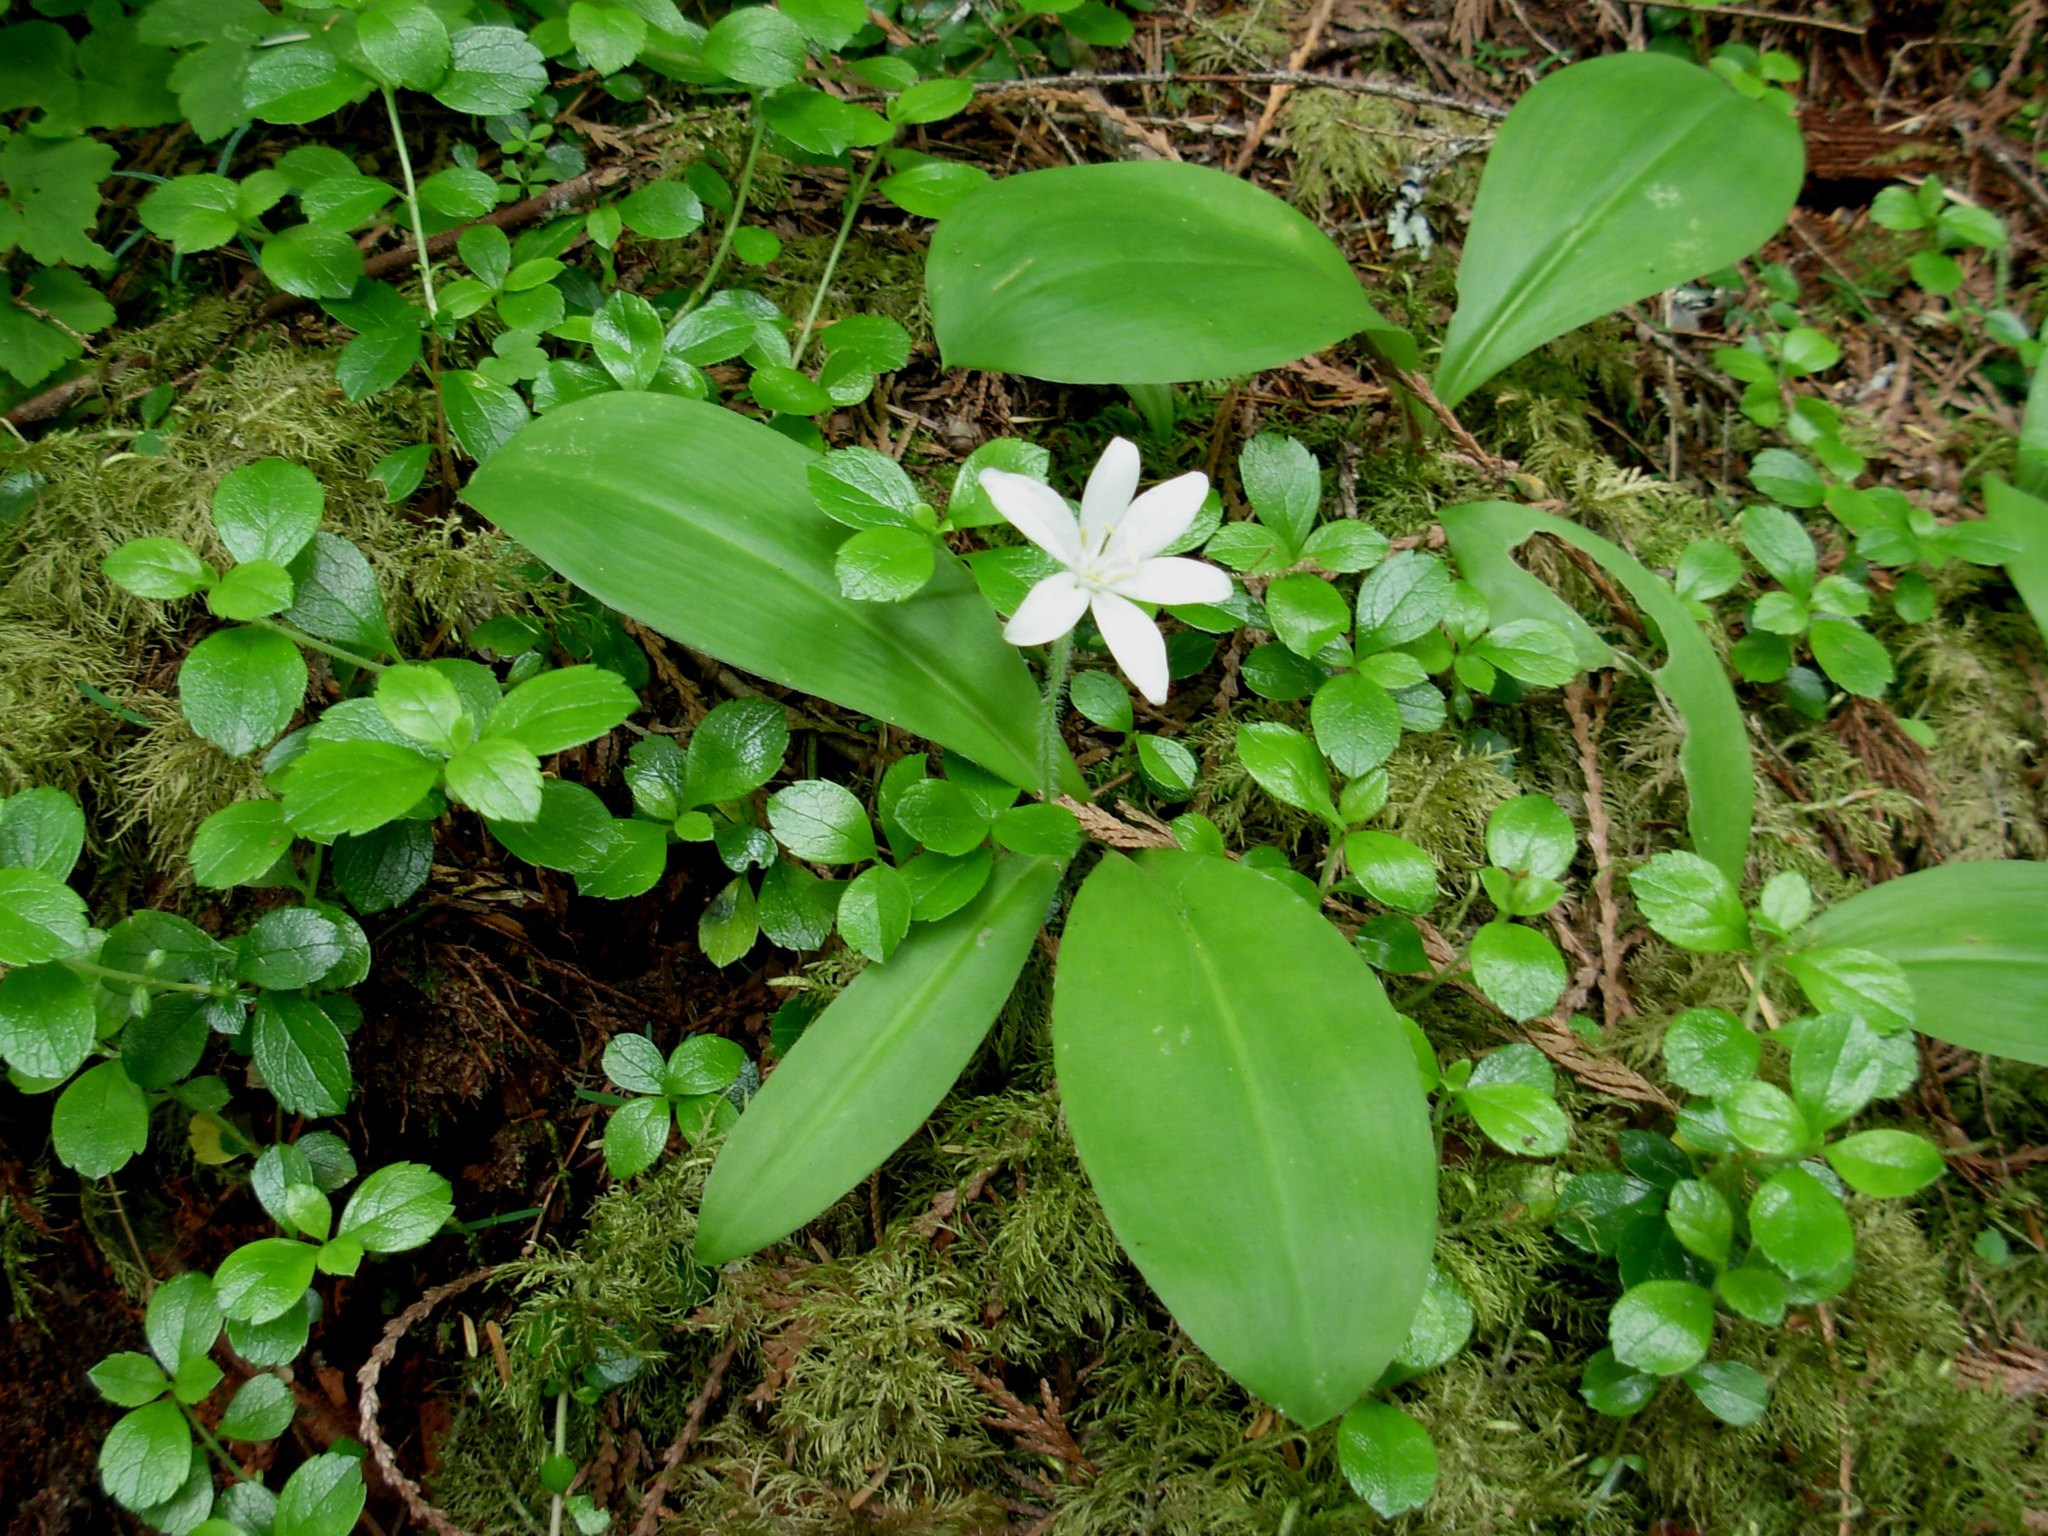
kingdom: Plantae
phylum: Tracheophyta
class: Liliopsida
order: Liliales
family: Liliaceae
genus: Clintonia
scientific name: Clintonia uniflora
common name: Queen's cup
